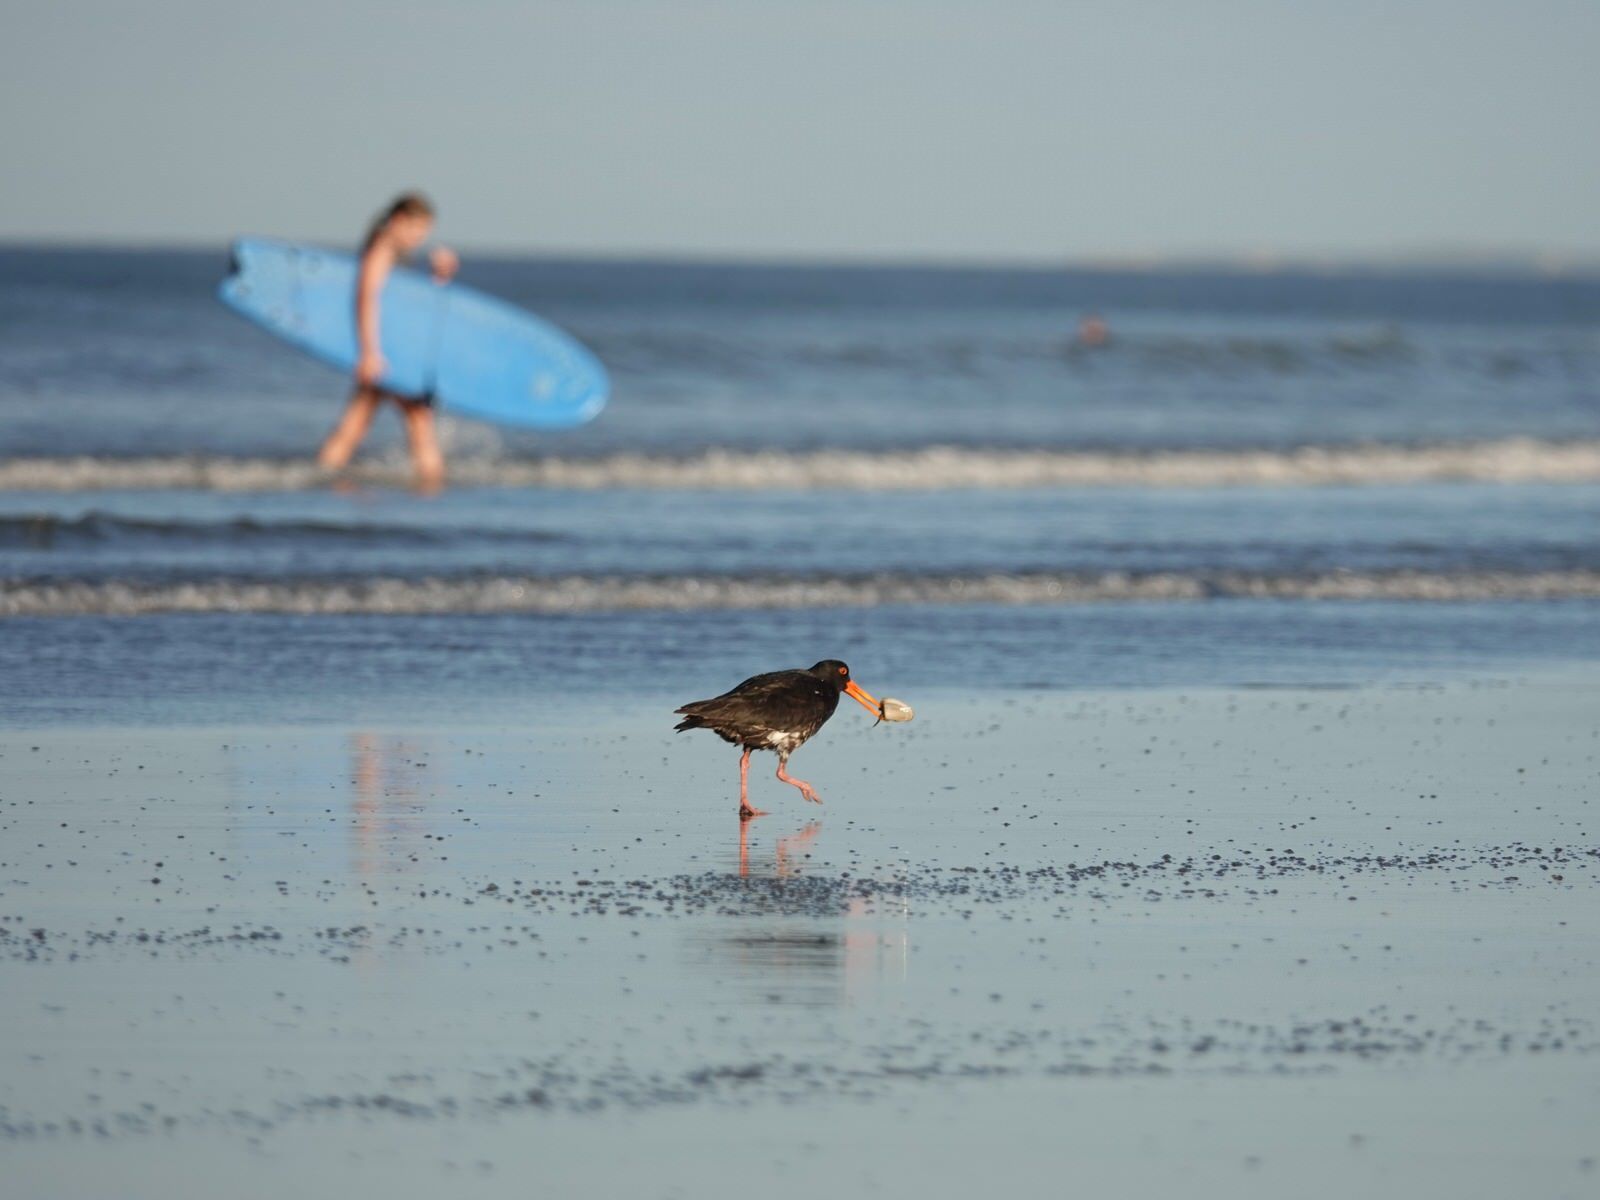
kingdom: Animalia
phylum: Chordata
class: Aves
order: Charadriiformes
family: Haematopodidae
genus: Haematopus
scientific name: Haematopus unicolor
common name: Variable oystercatcher
